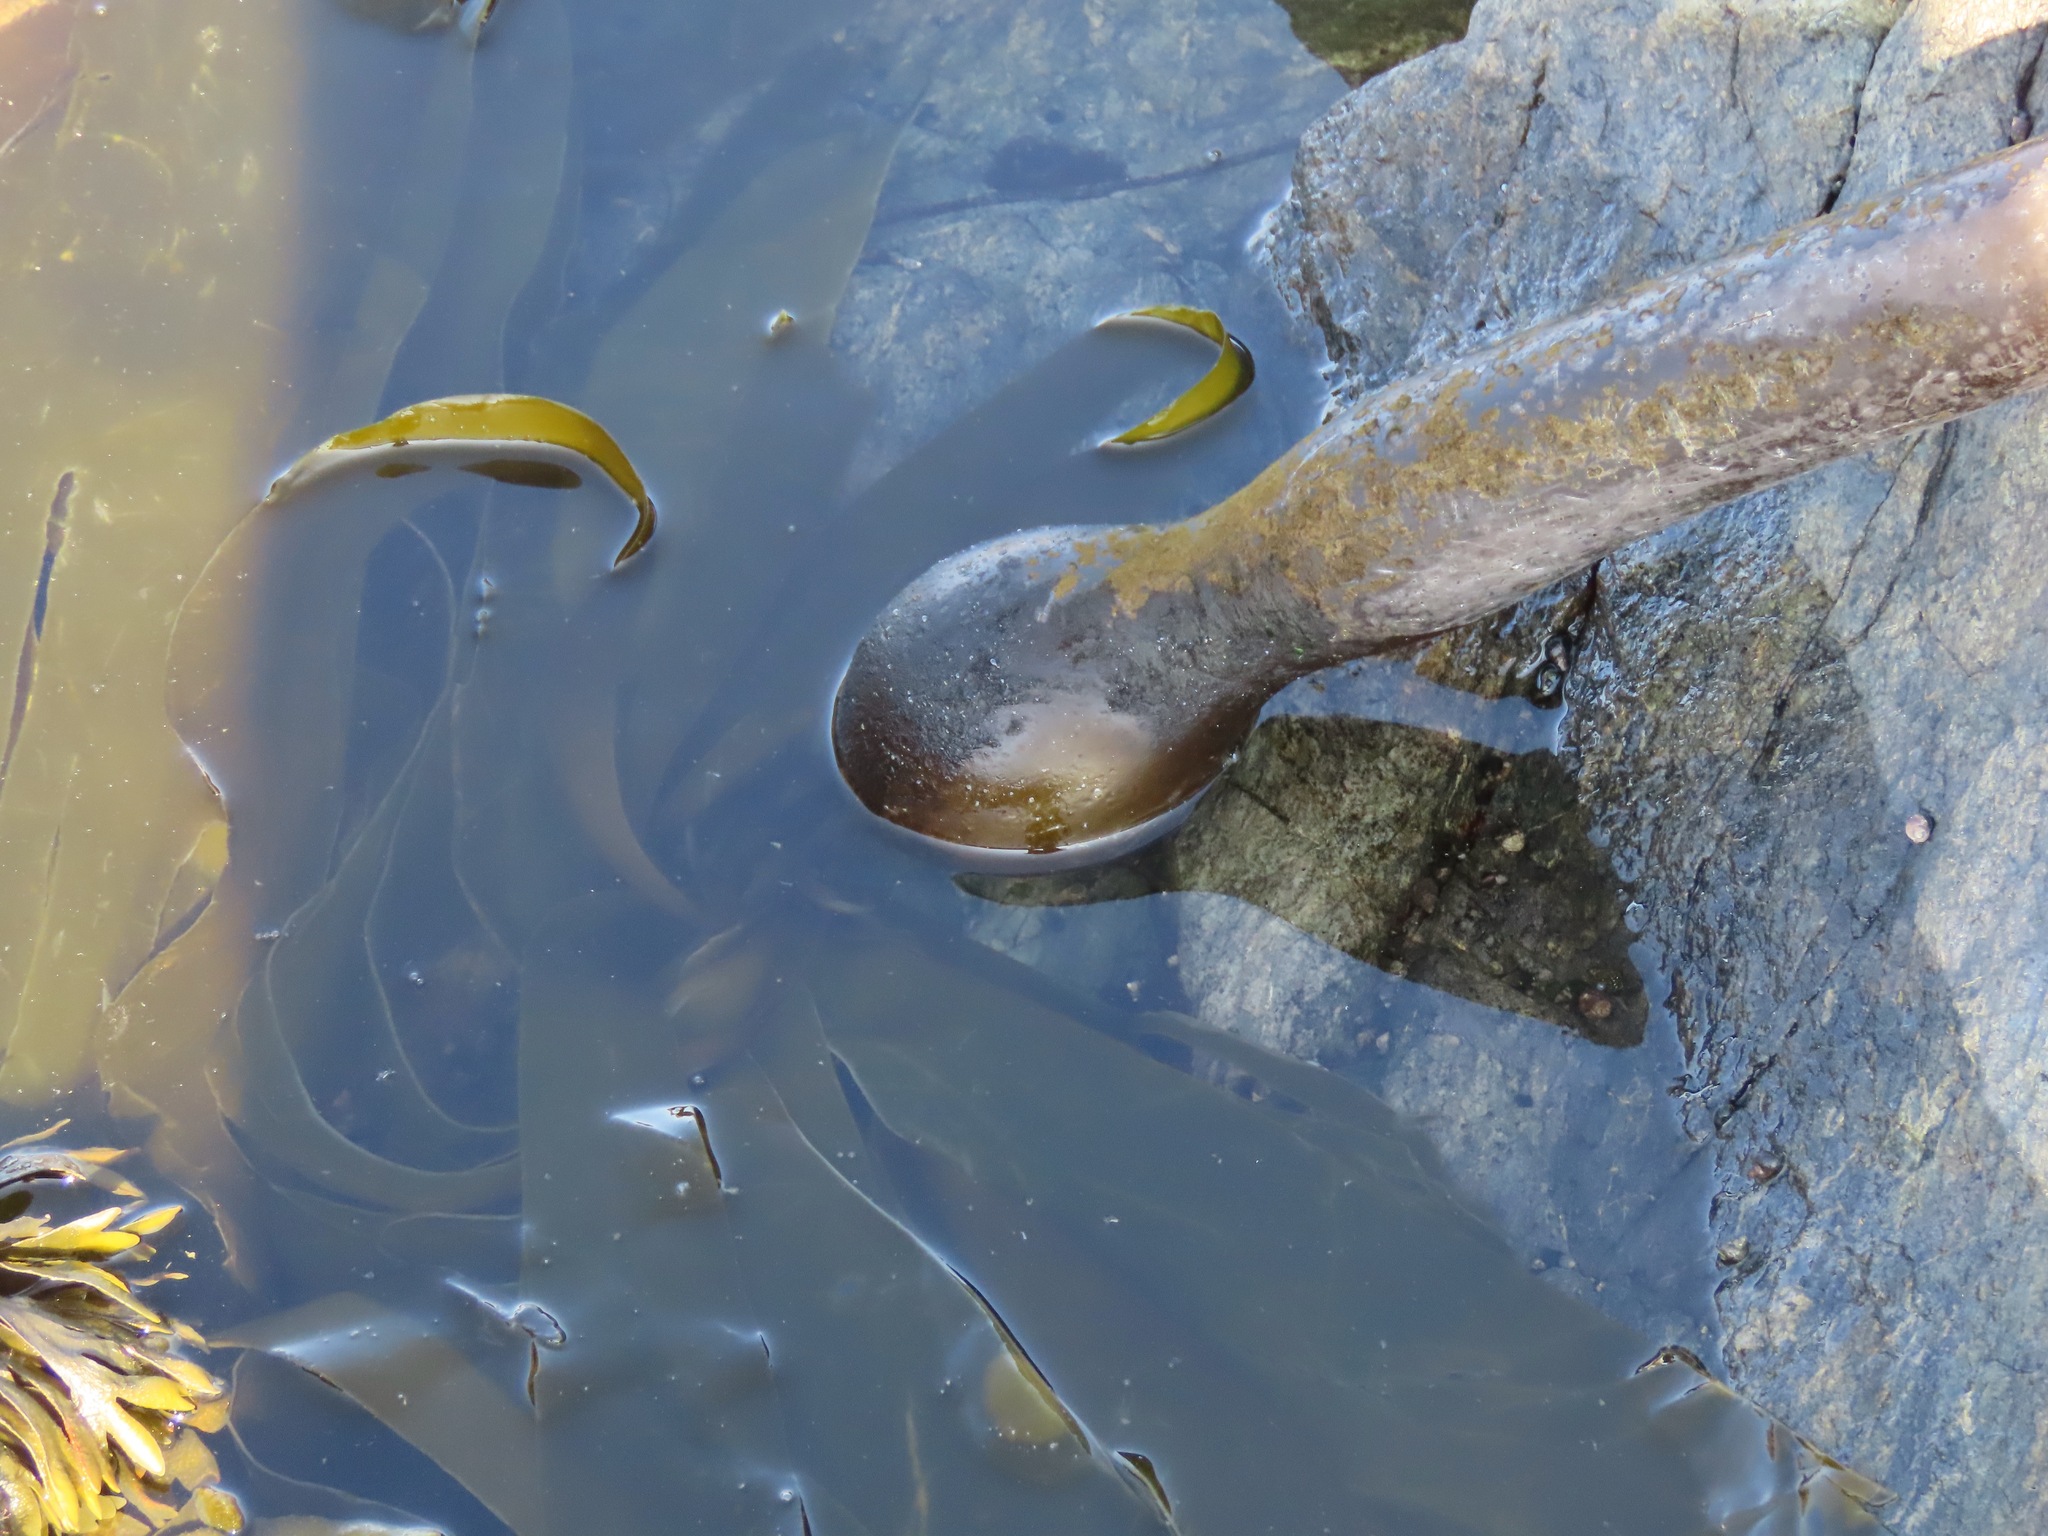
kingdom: Chromista
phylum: Ochrophyta
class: Phaeophyceae
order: Laminariales
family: Laminariaceae
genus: Nereocystis
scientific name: Nereocystis luetkeana
